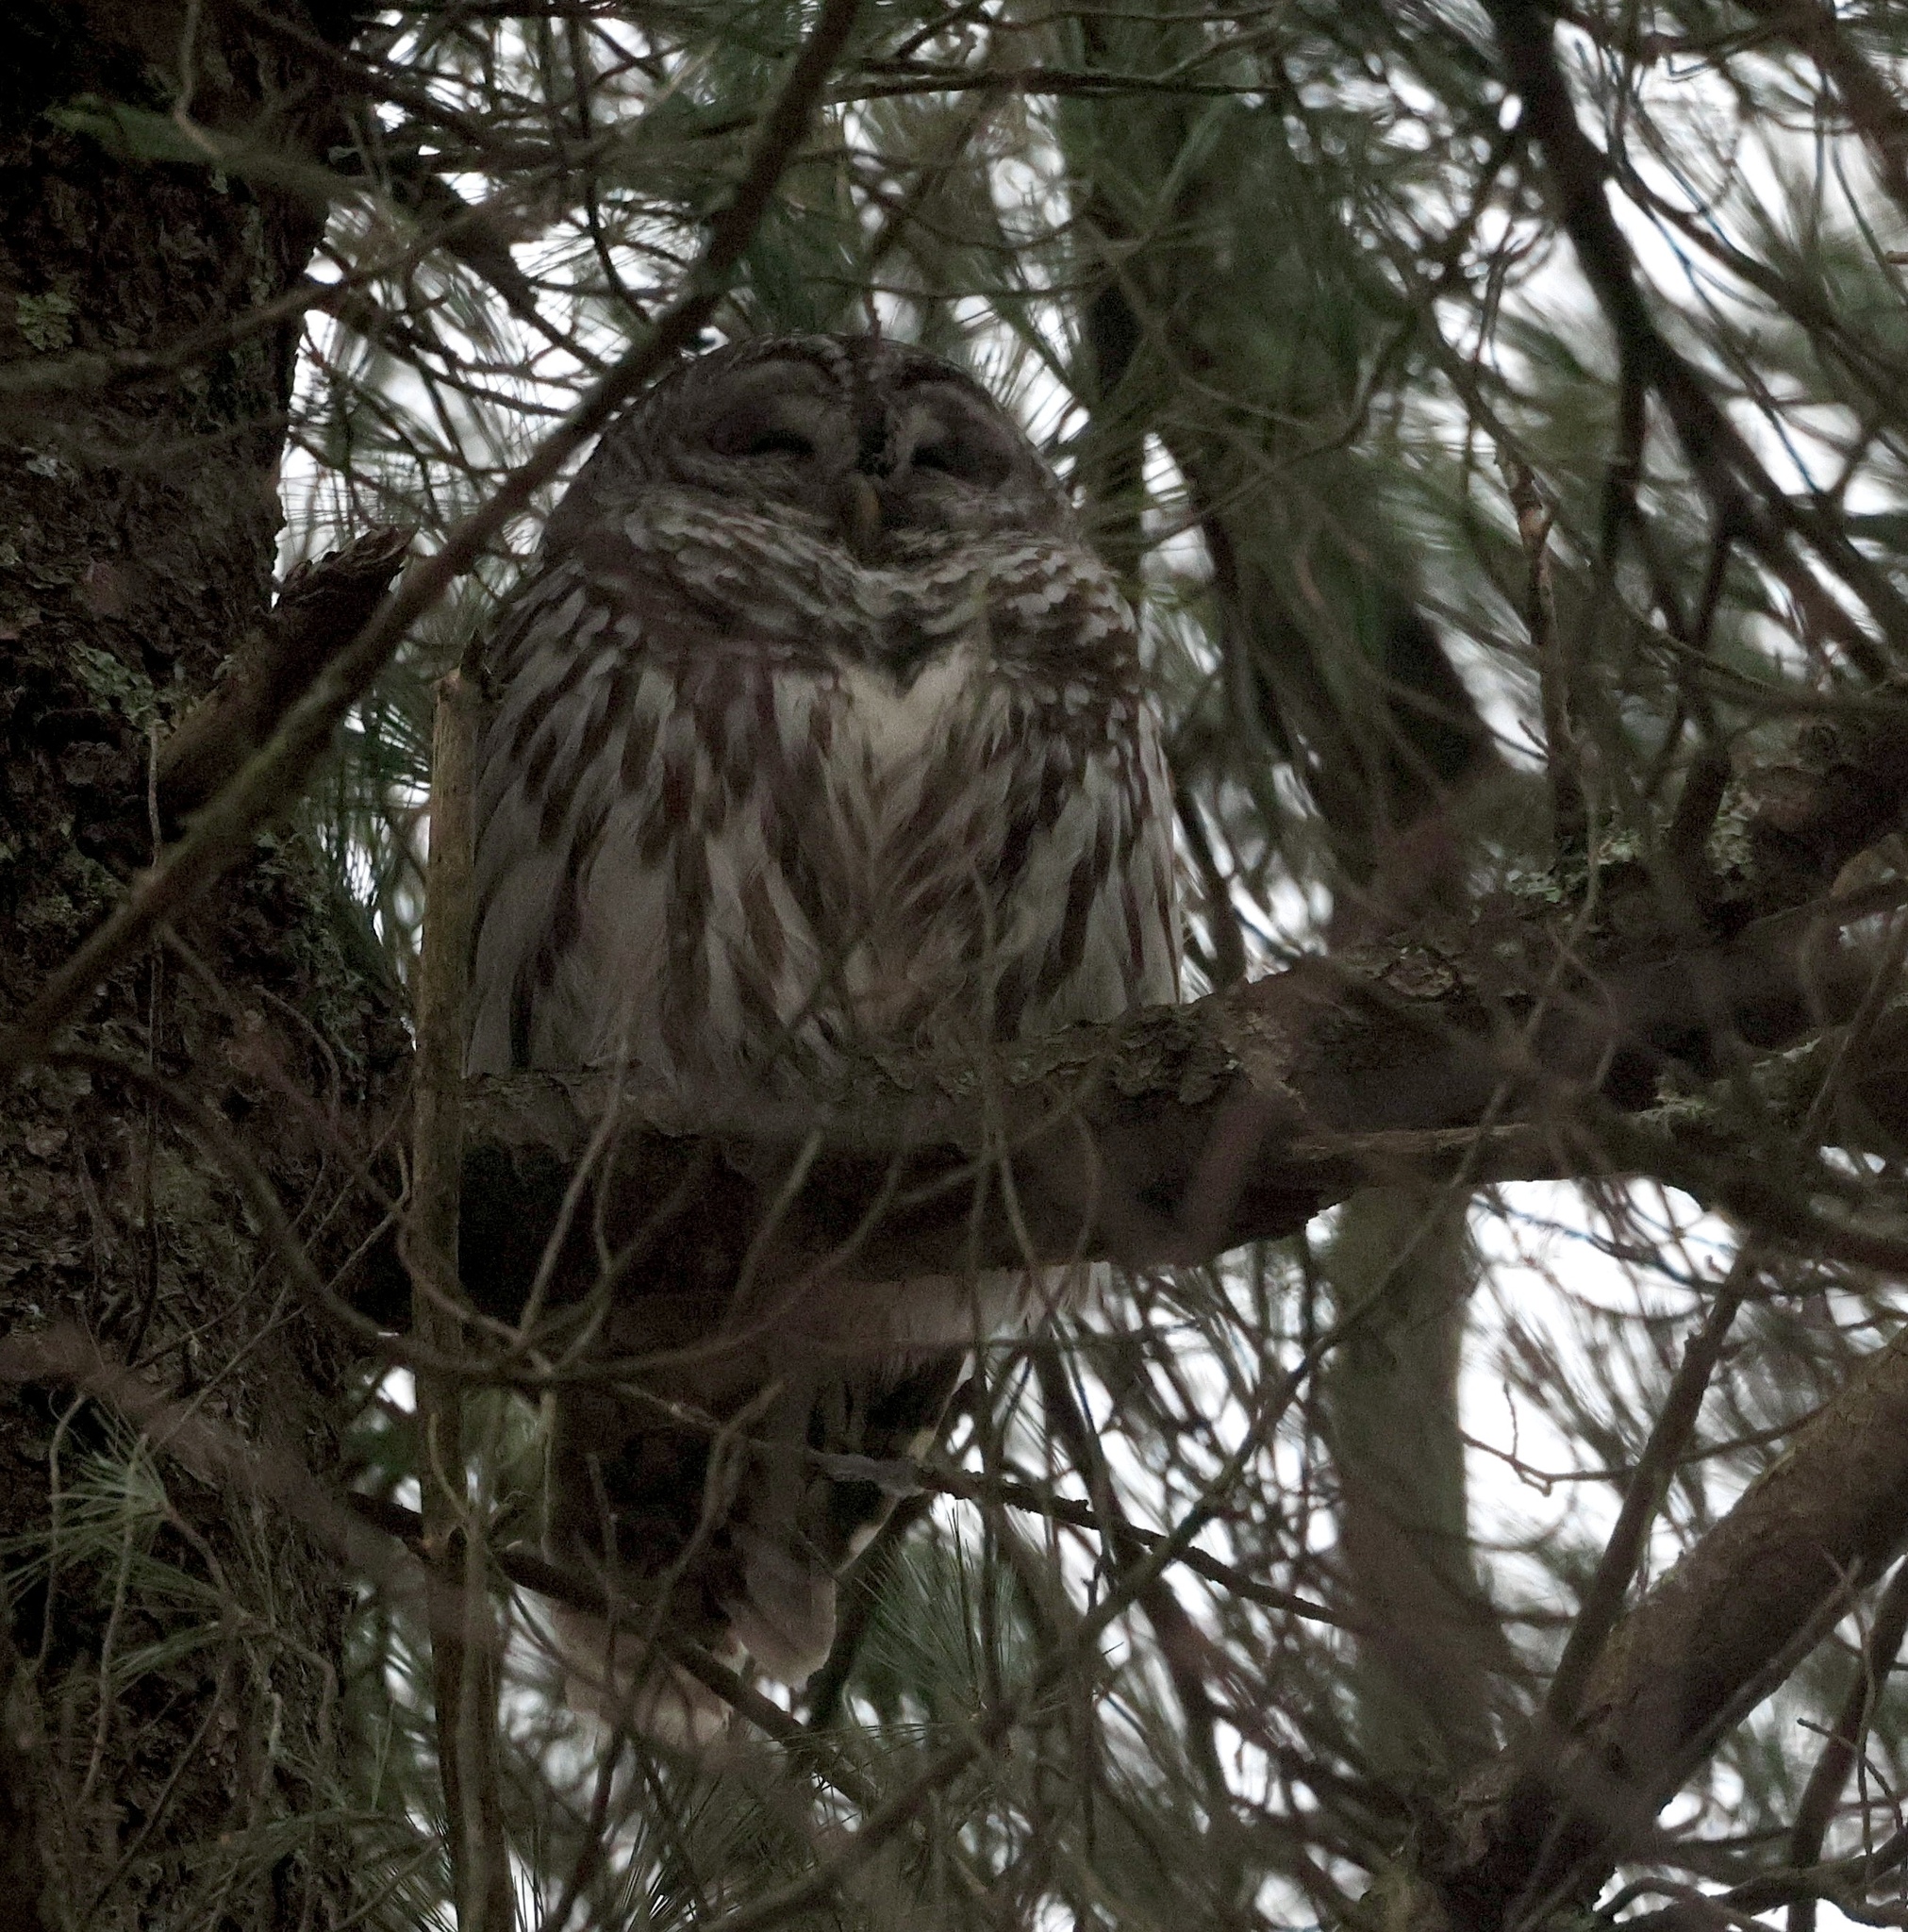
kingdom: Animalia
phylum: Chordata
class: Aves
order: Strigiformes
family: Strigidae
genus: Strix
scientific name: Strix varia
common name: Barred owl
